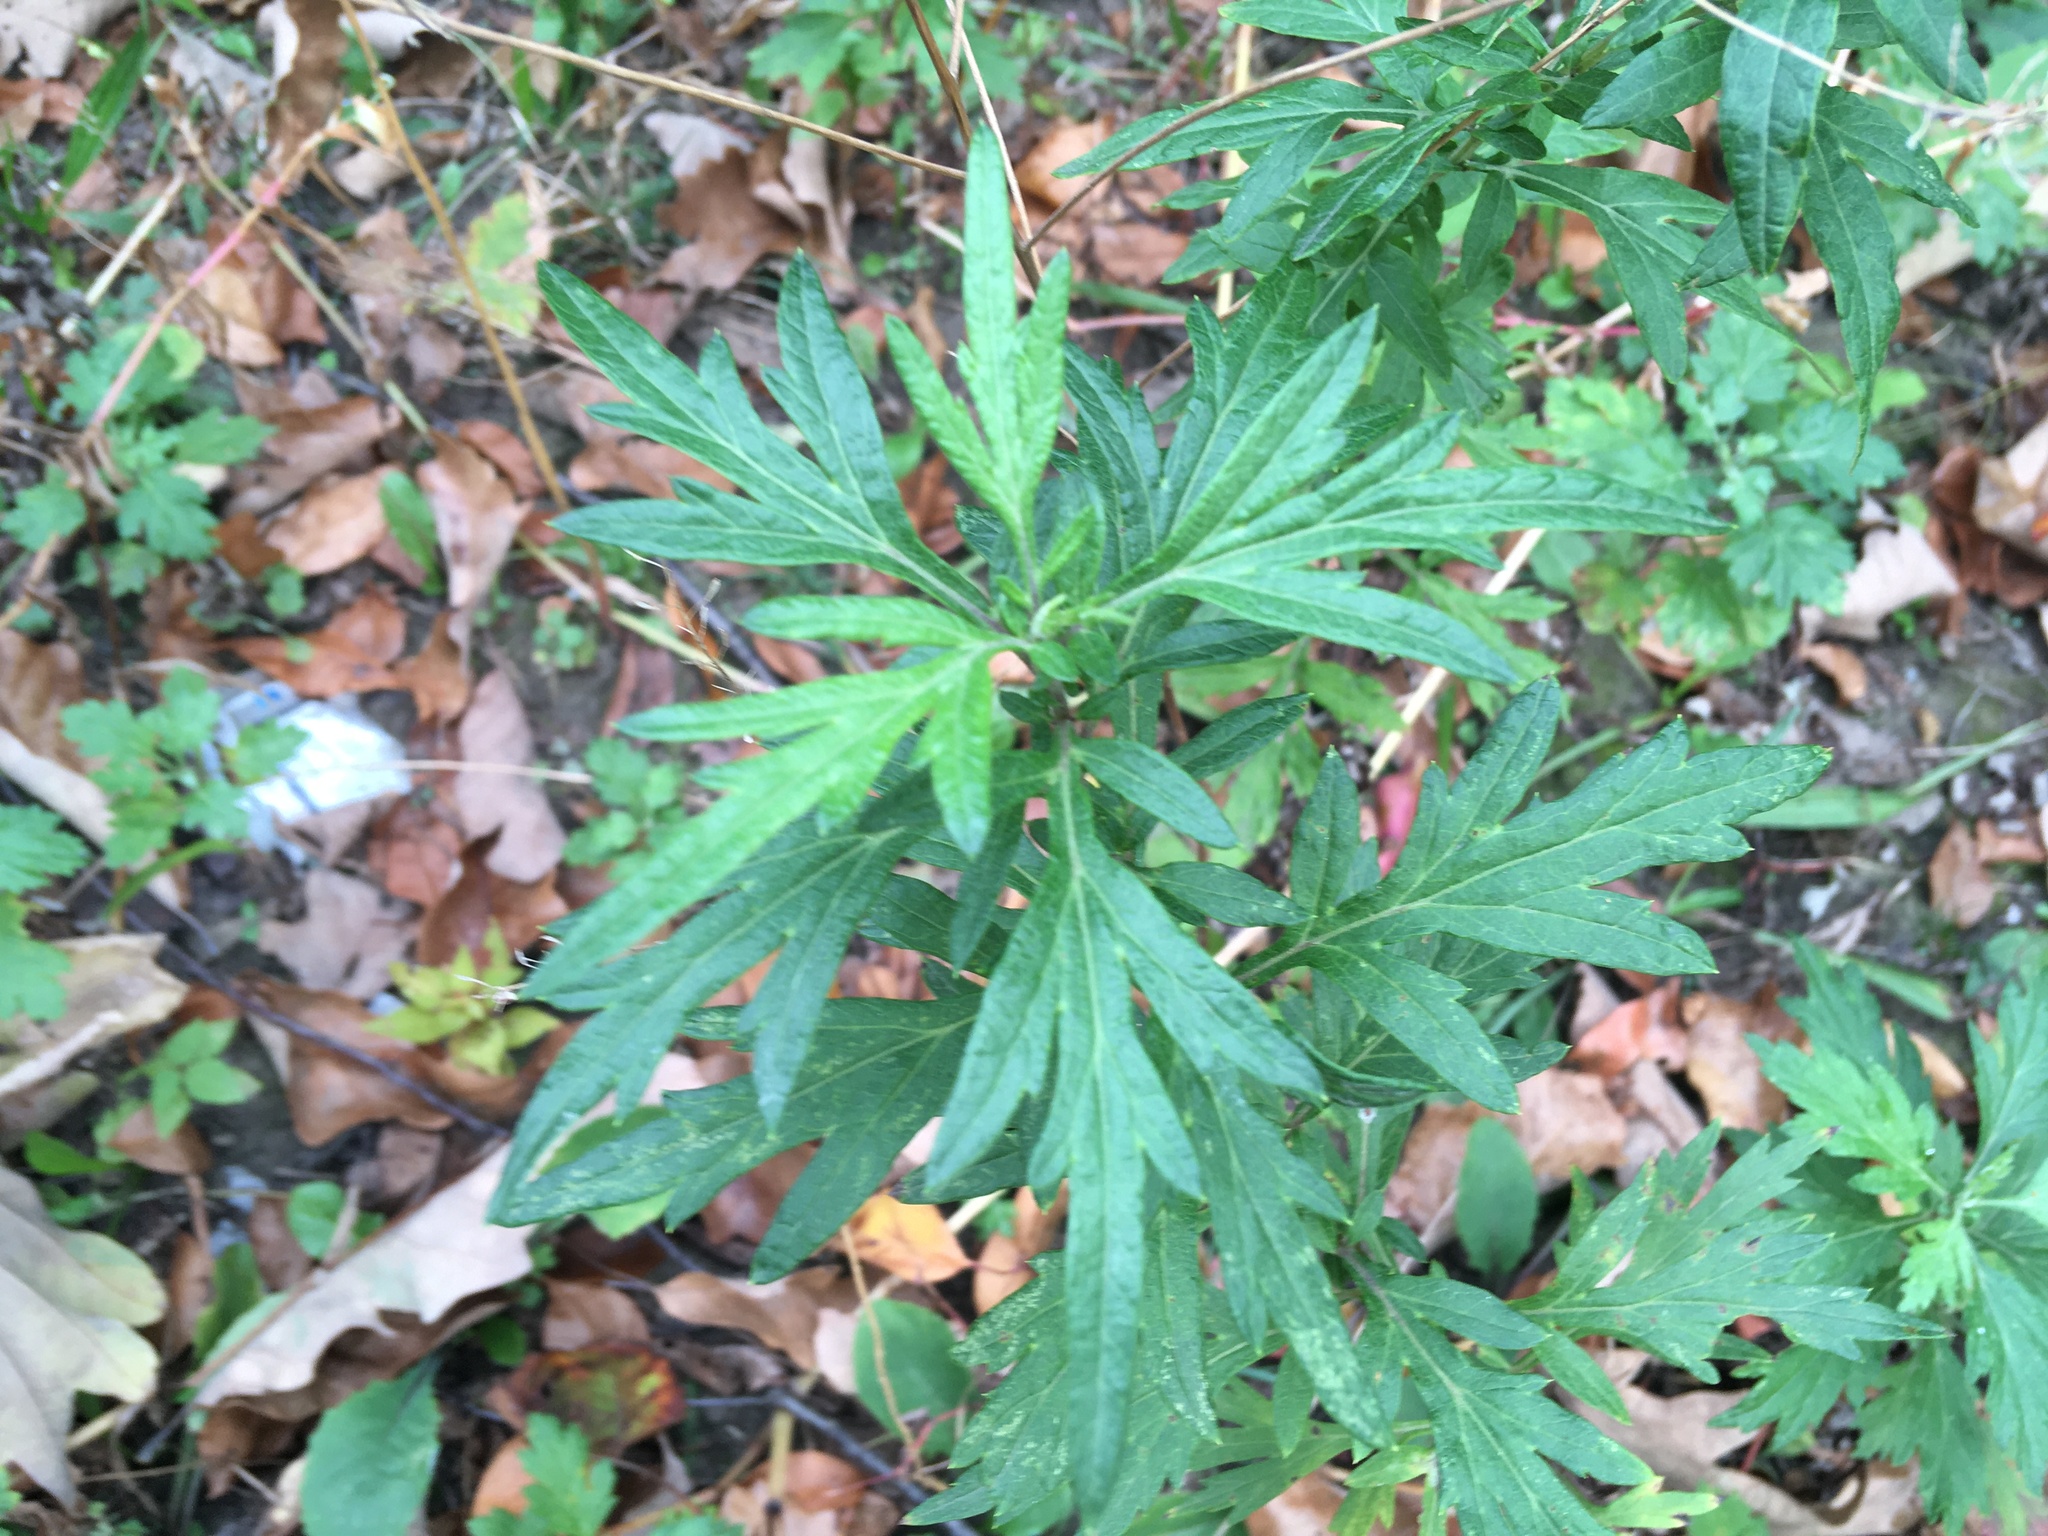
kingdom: Plantae
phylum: Tracheophyta
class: Magnoliopsida
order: Asterales
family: Asteraceae
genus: Artemisia
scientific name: Artemisia vulgaris
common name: Mugwort
